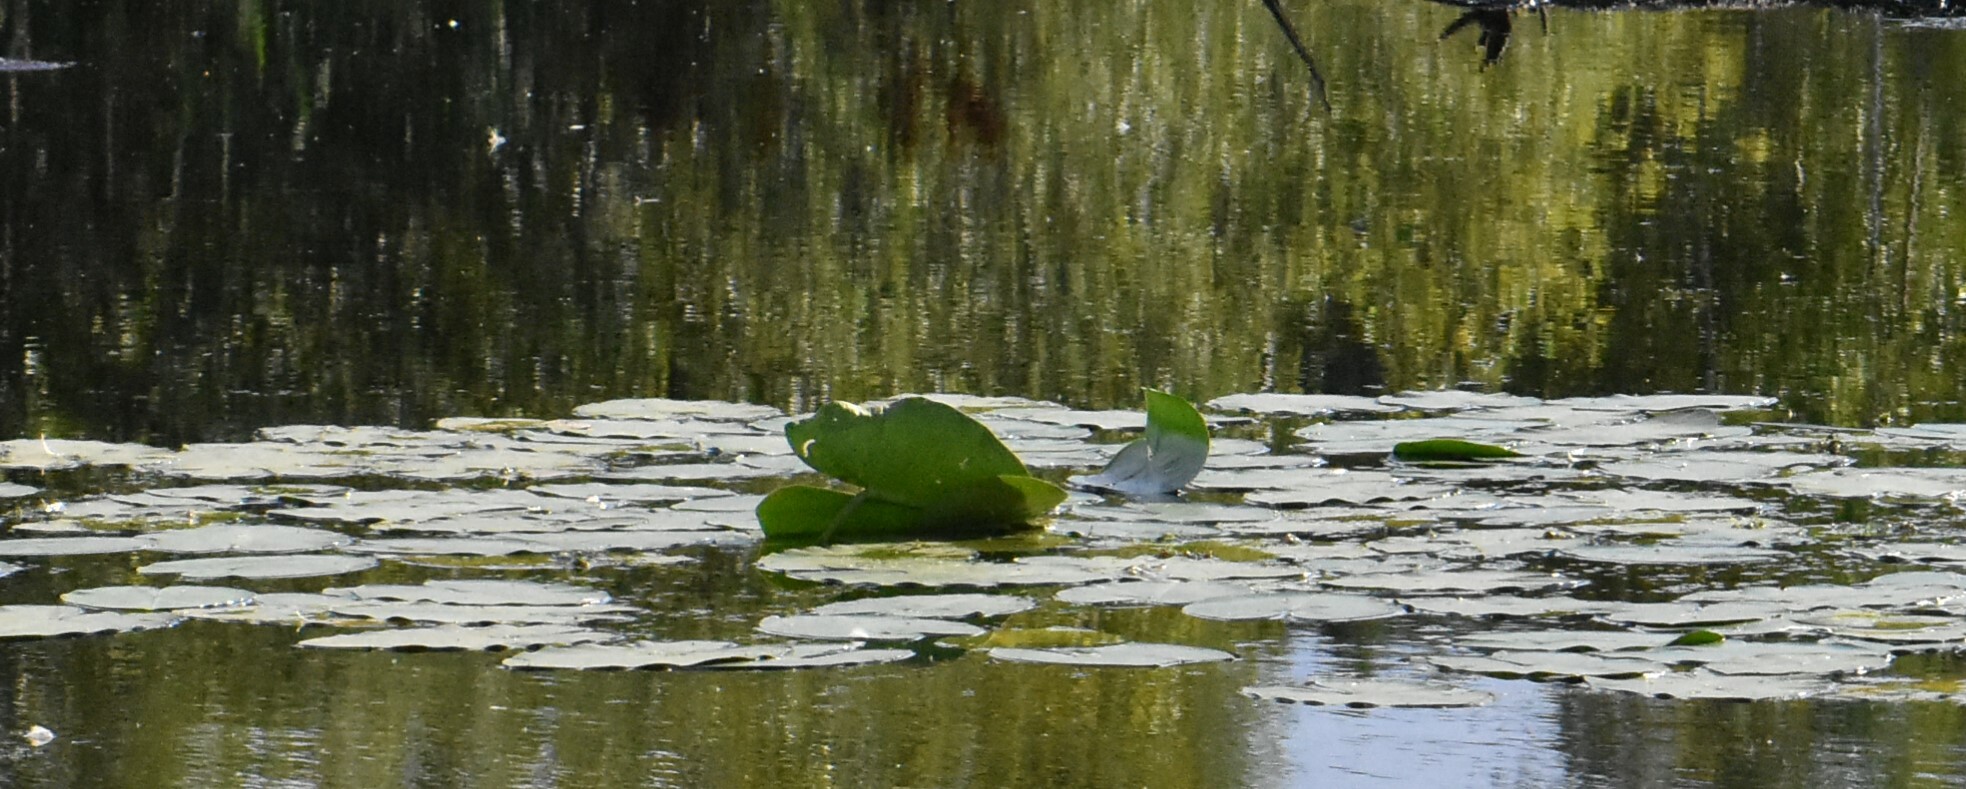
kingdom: Plantae
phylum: Tracheophyta
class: Magnoliopsida
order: Nymphaeales
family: Nymphaeaceae
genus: Nuphar
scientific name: Nuphar lutea
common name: Yellow water-lily
